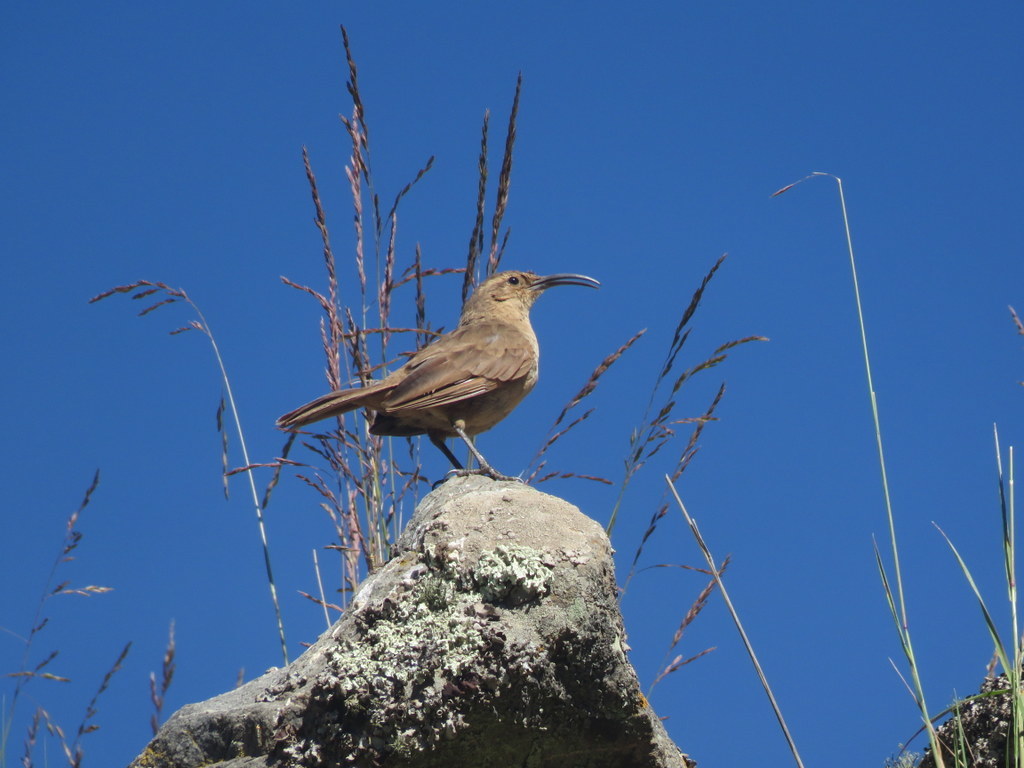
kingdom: Animalia
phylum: Chordata
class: Aves
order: Passeriformes
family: Furnariidae
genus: Upucerthia
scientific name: Upucerthia validirostris
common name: Buff-breasted earthcreeper
